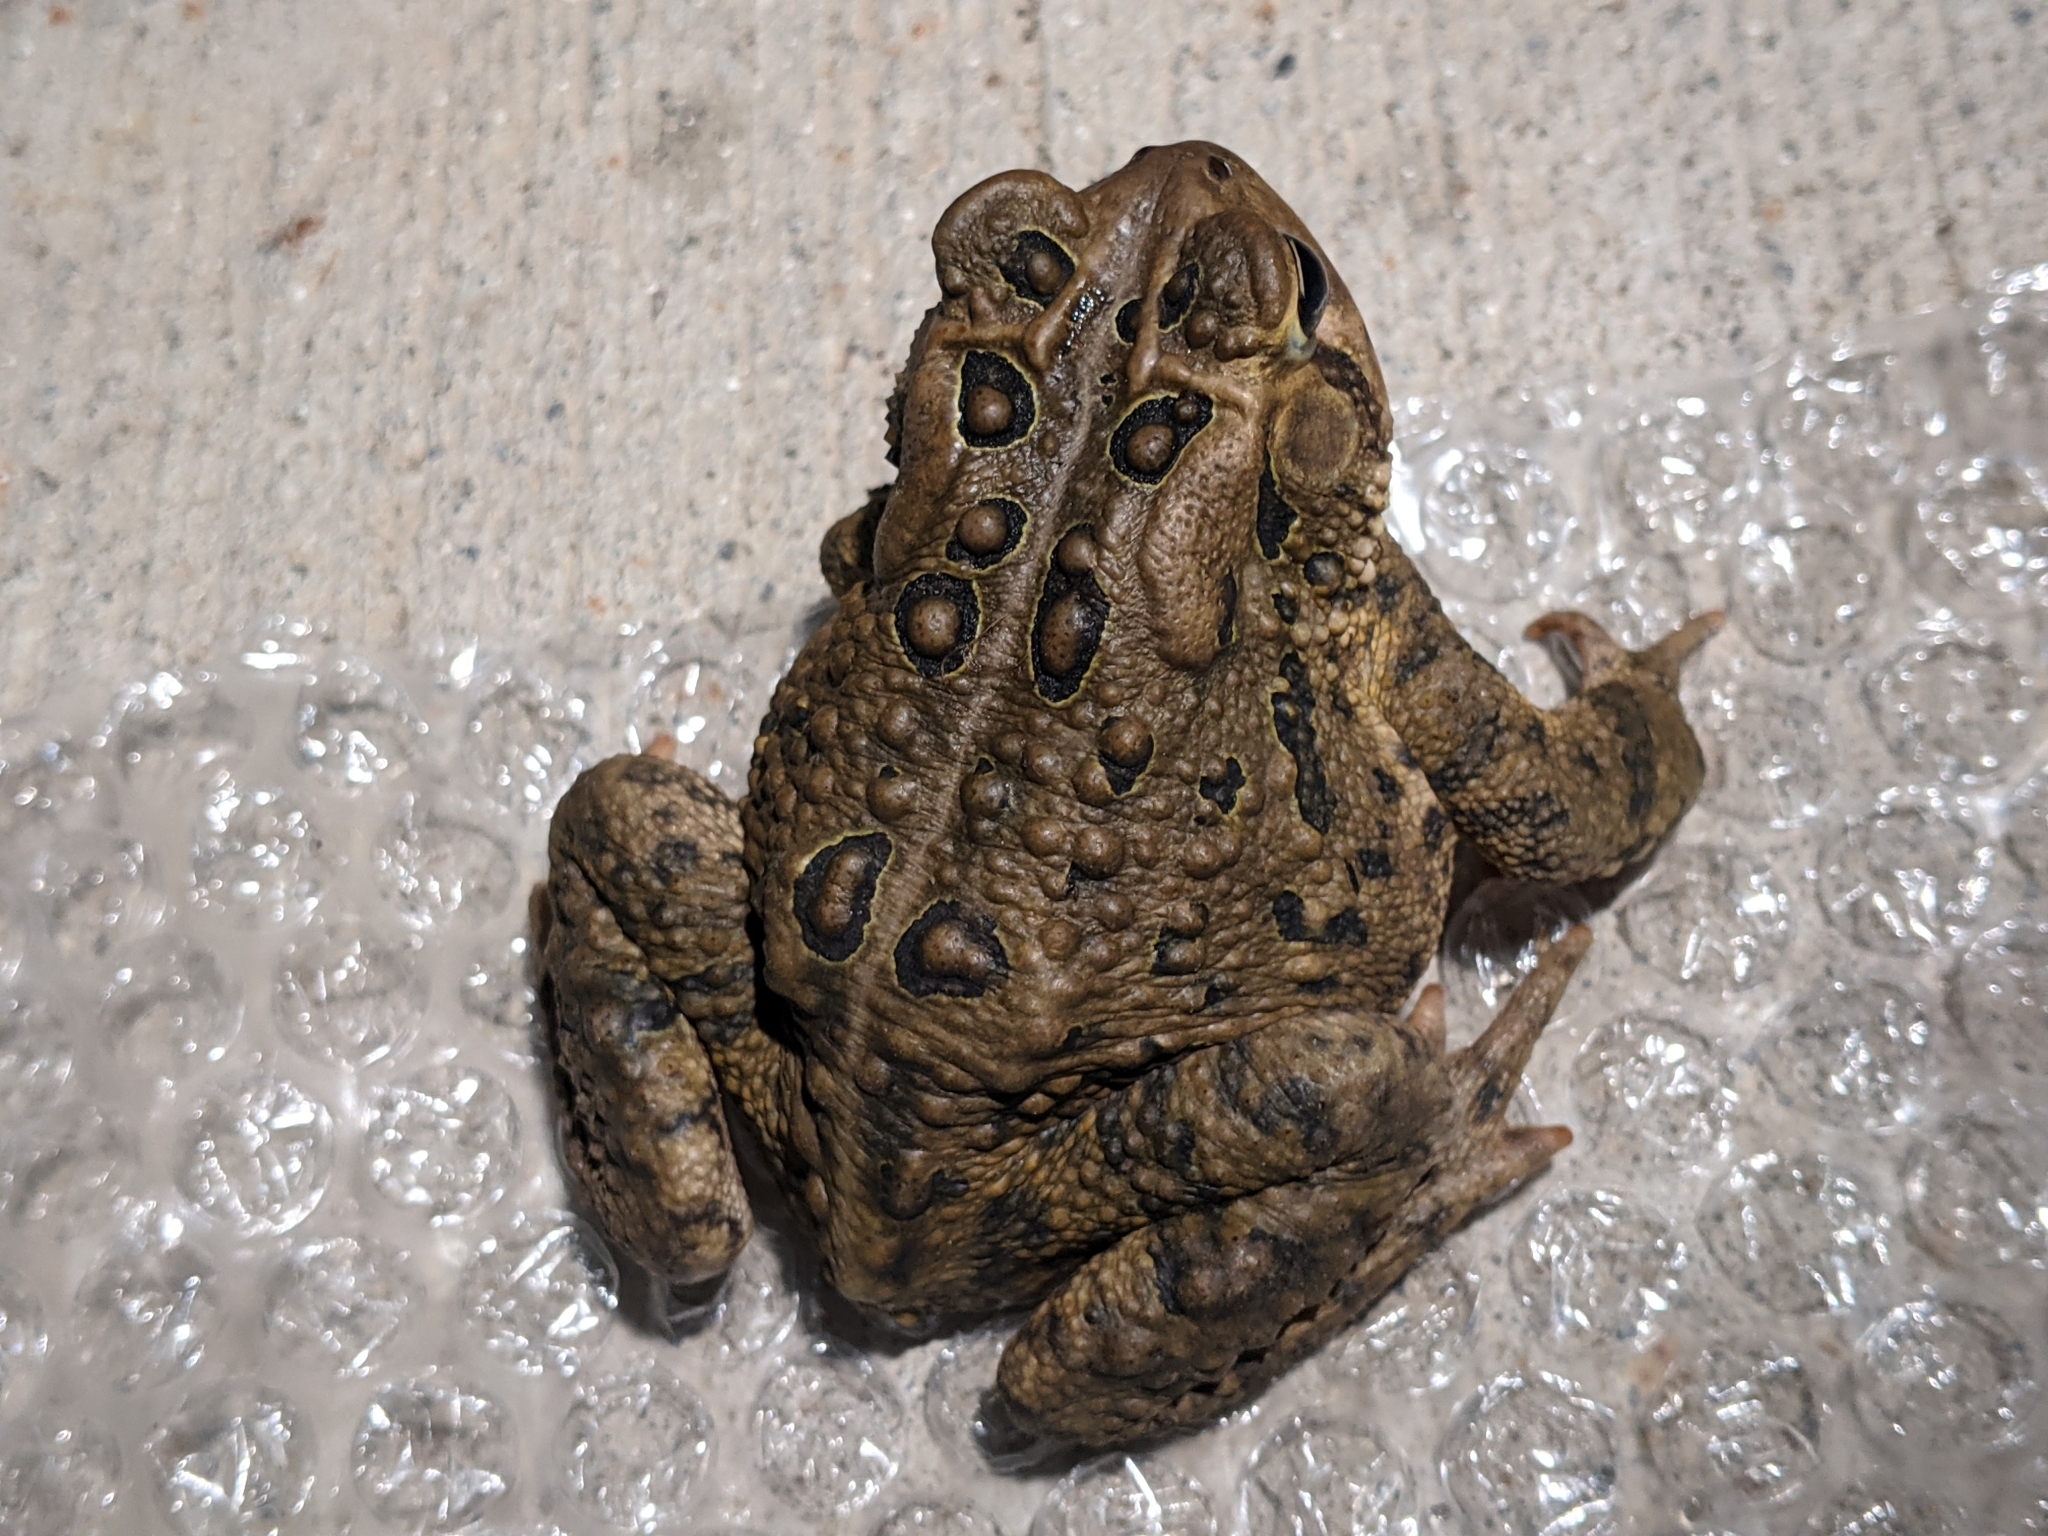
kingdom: Animalia
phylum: Chordata
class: Amphibia
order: Anura
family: Bufonidae
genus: Anaxyrus
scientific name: Anaxyrus americanus
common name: American toad
